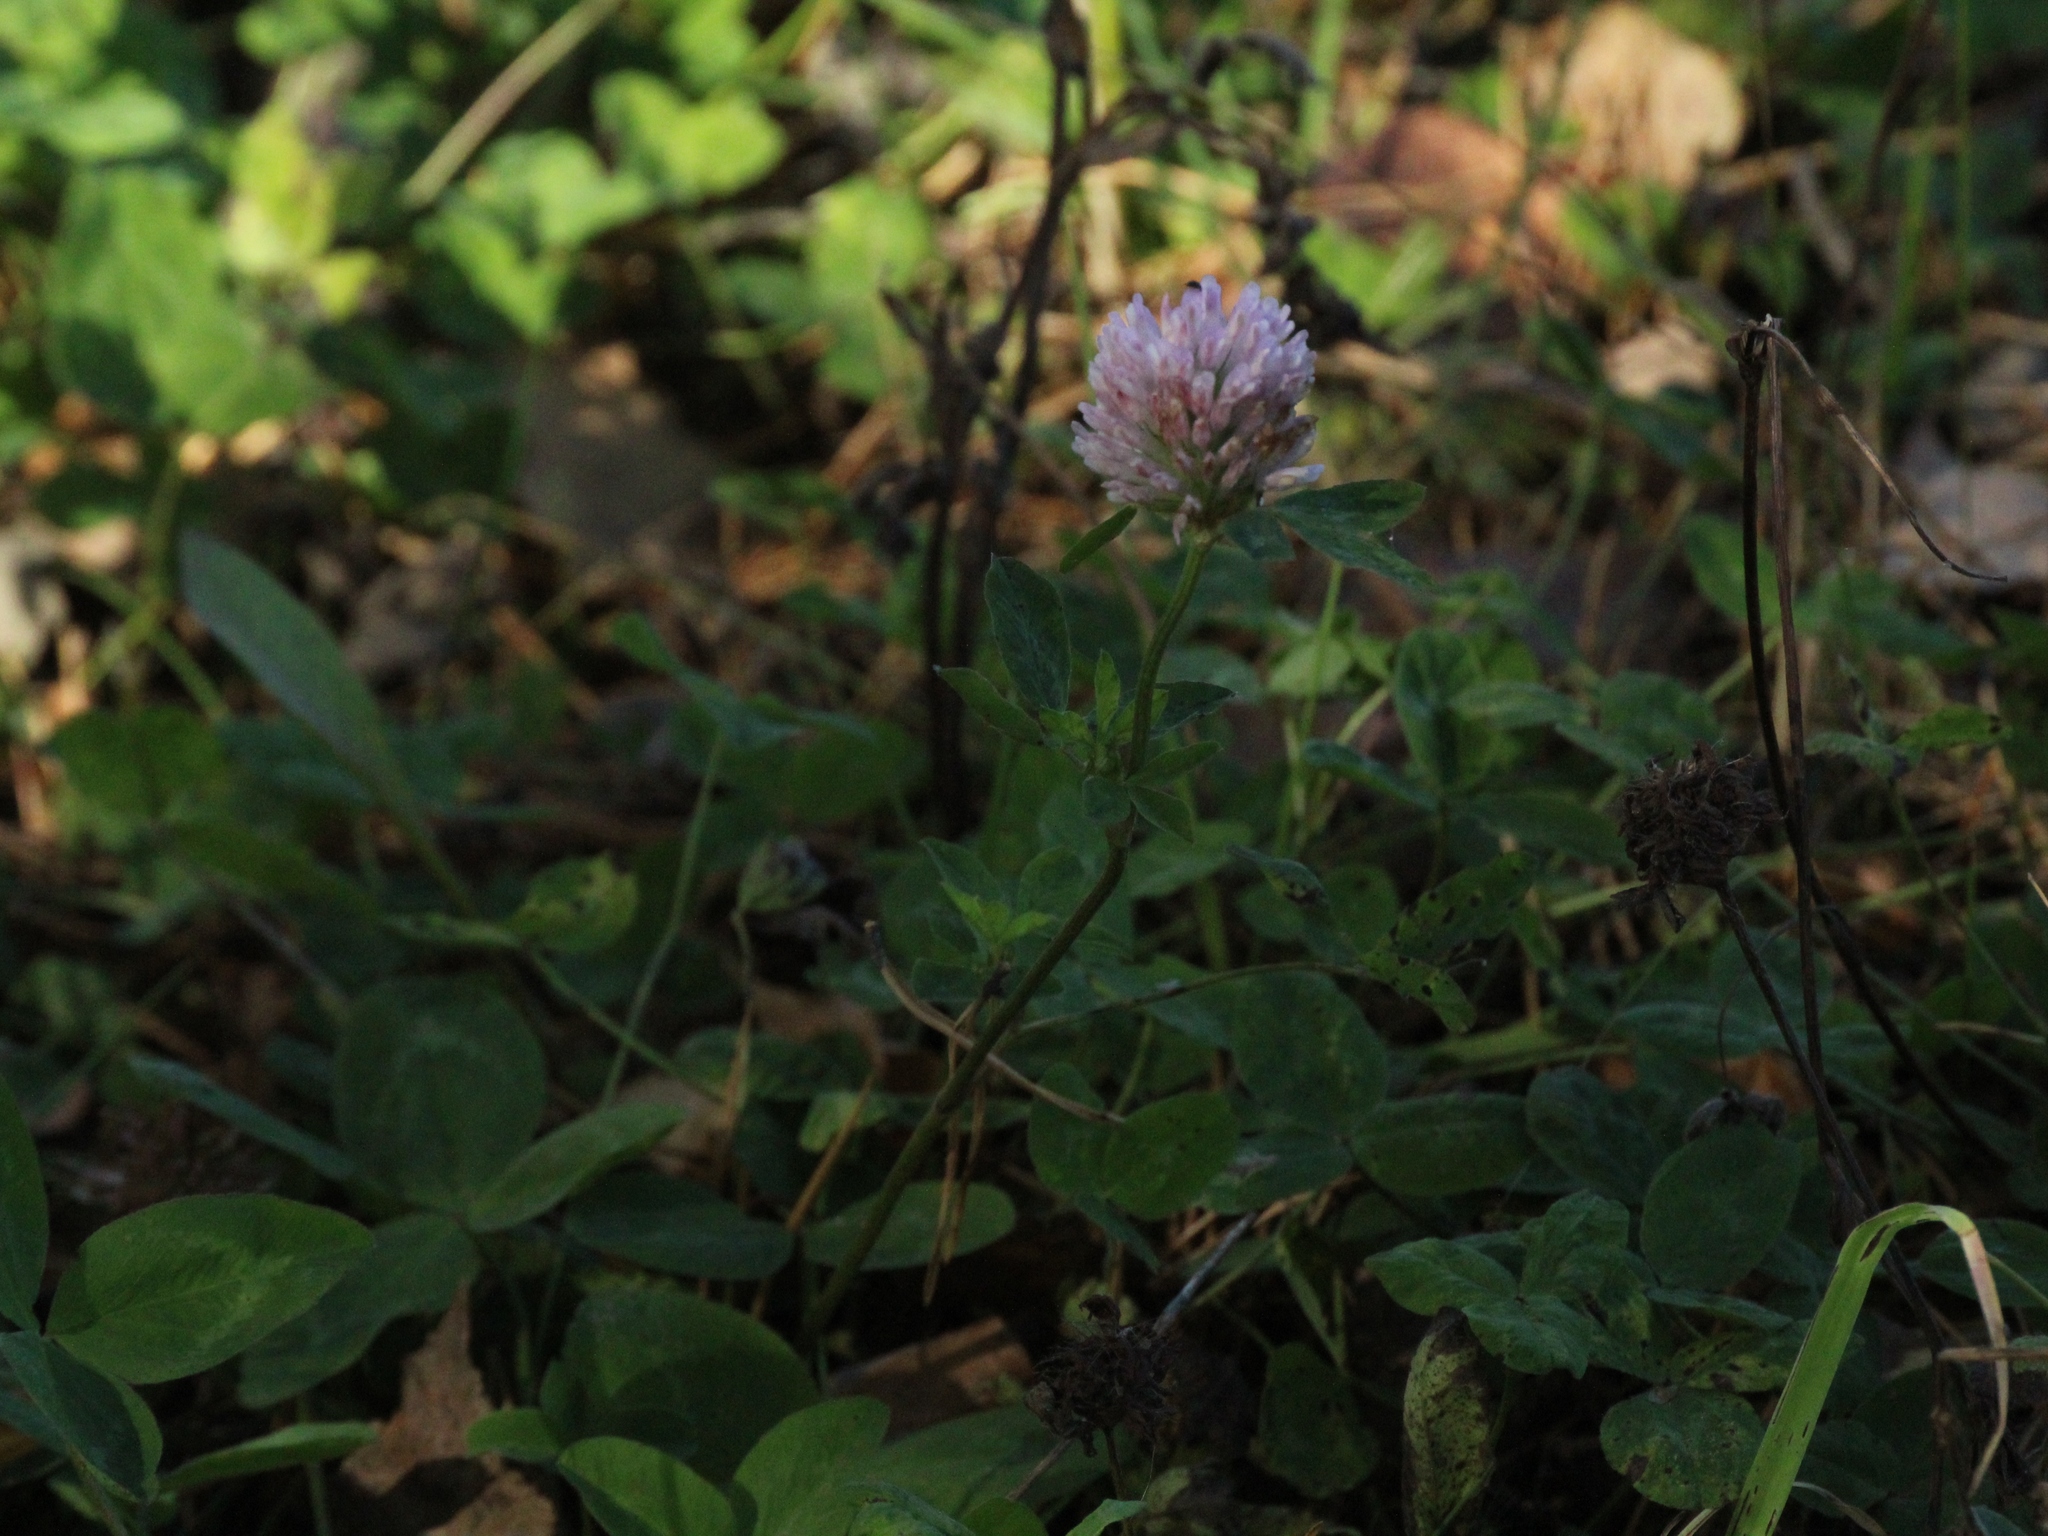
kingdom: Plantae
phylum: Tracheophyta
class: Magnoliopsida
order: Fabales
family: Fabaceae
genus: Trifolium
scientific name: Trifolium pratense
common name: Red clover
